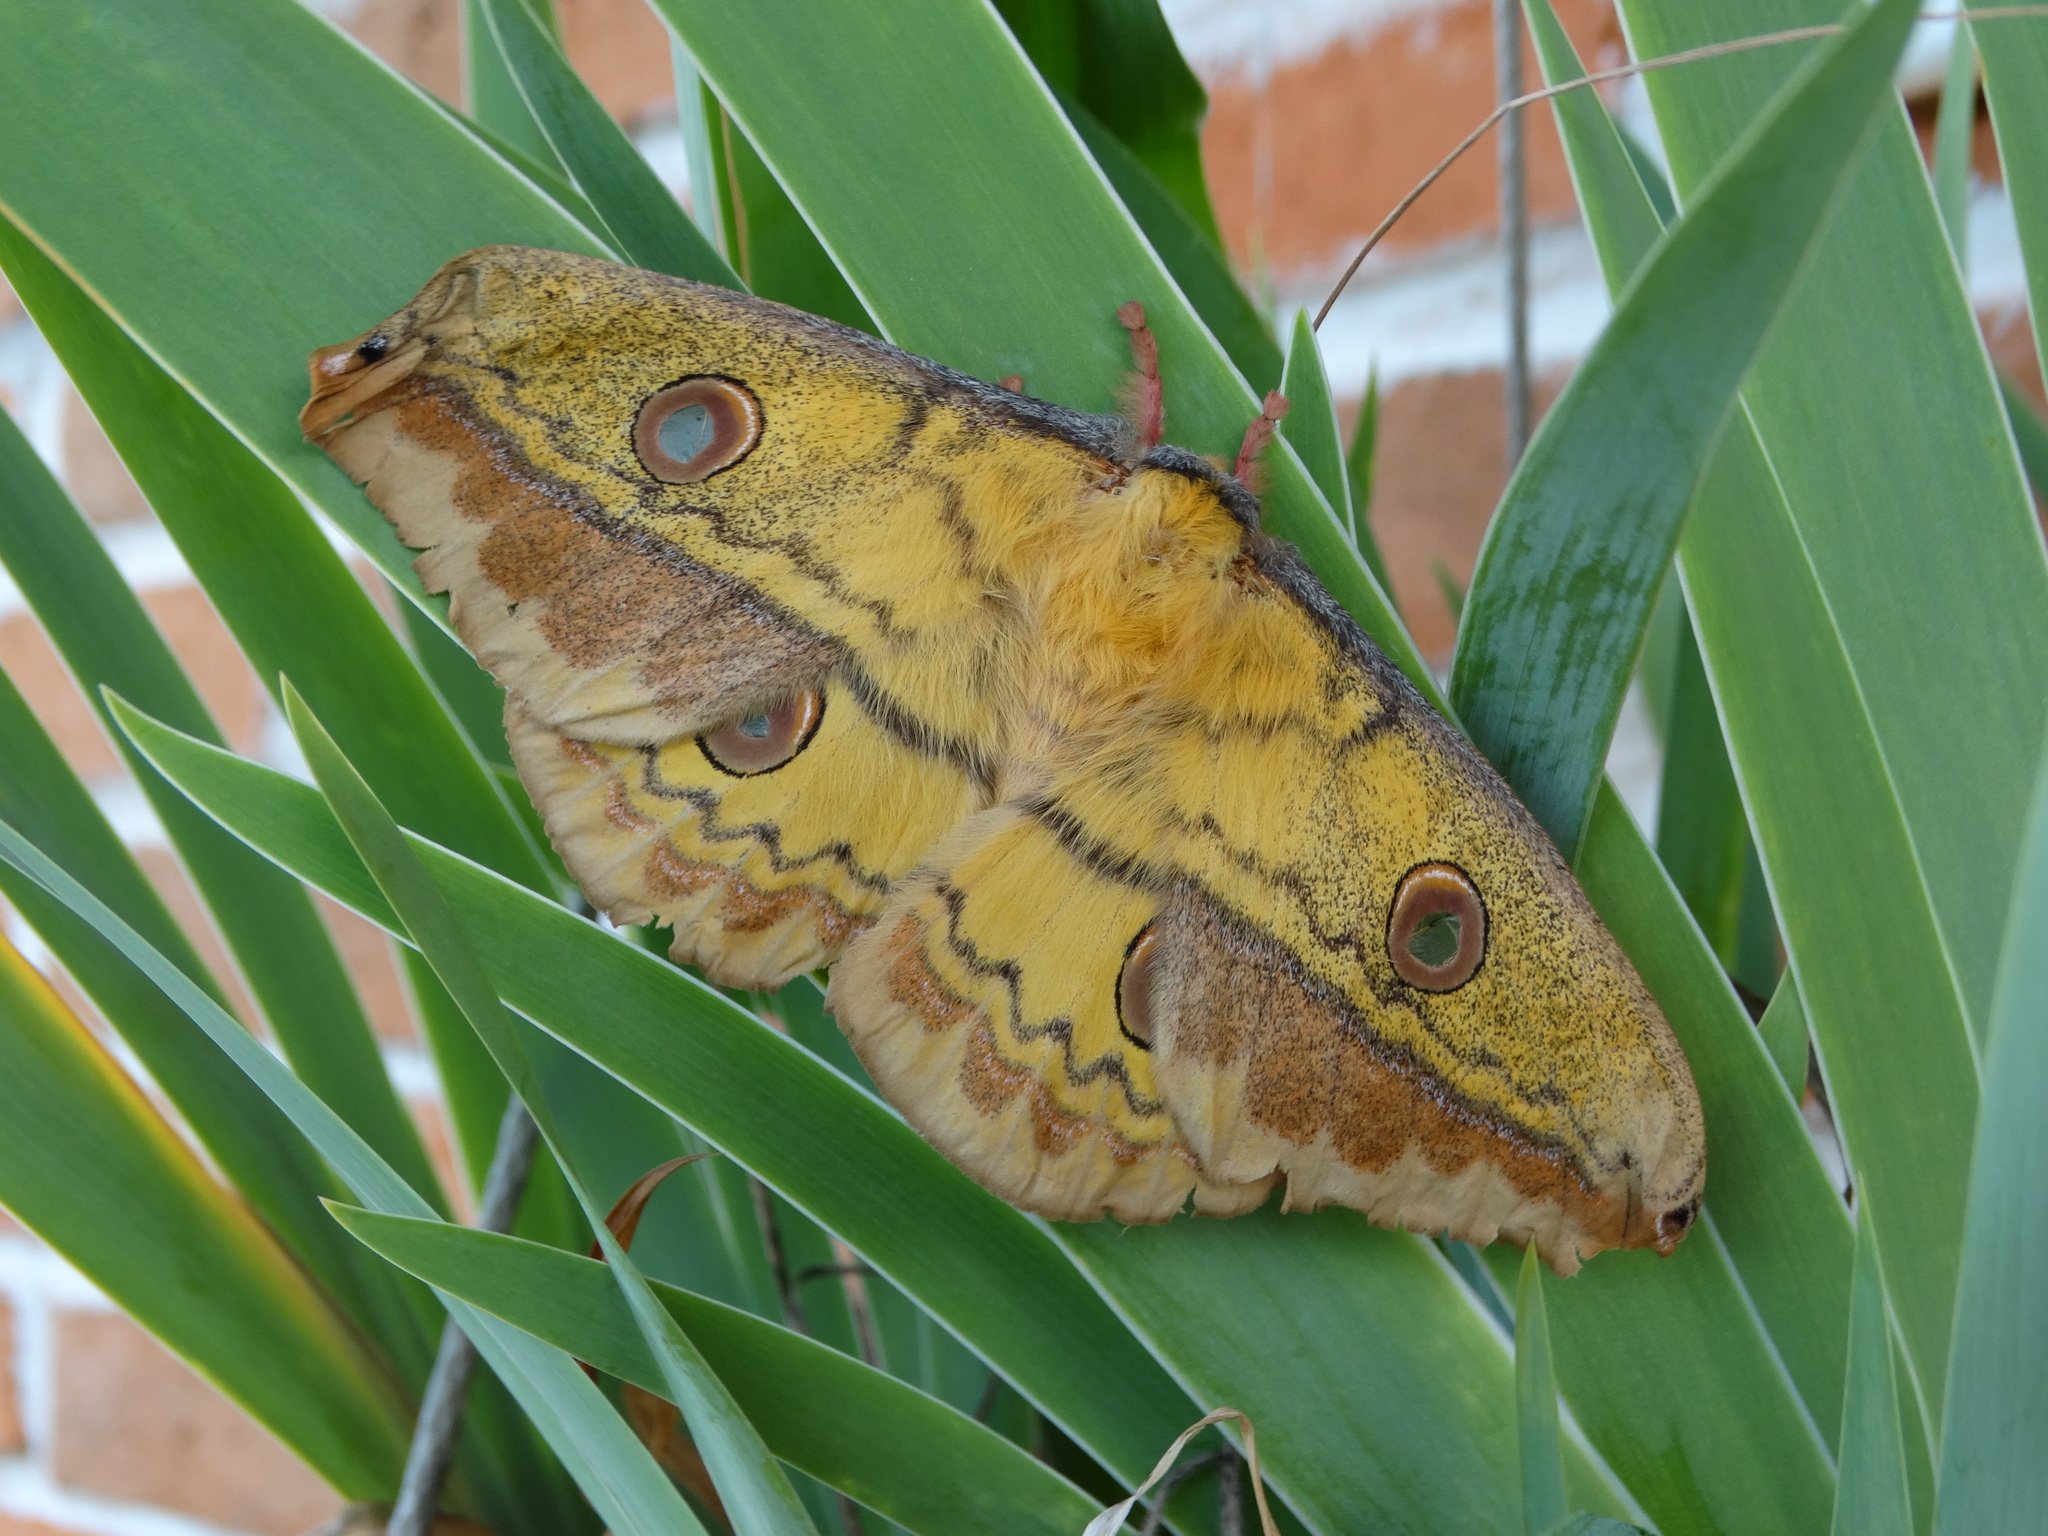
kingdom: Animalia
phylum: Arthropoda
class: Insecta
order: Lepidoptera
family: Saturniidae
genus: Copaxa
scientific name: Copaxa lavendera
